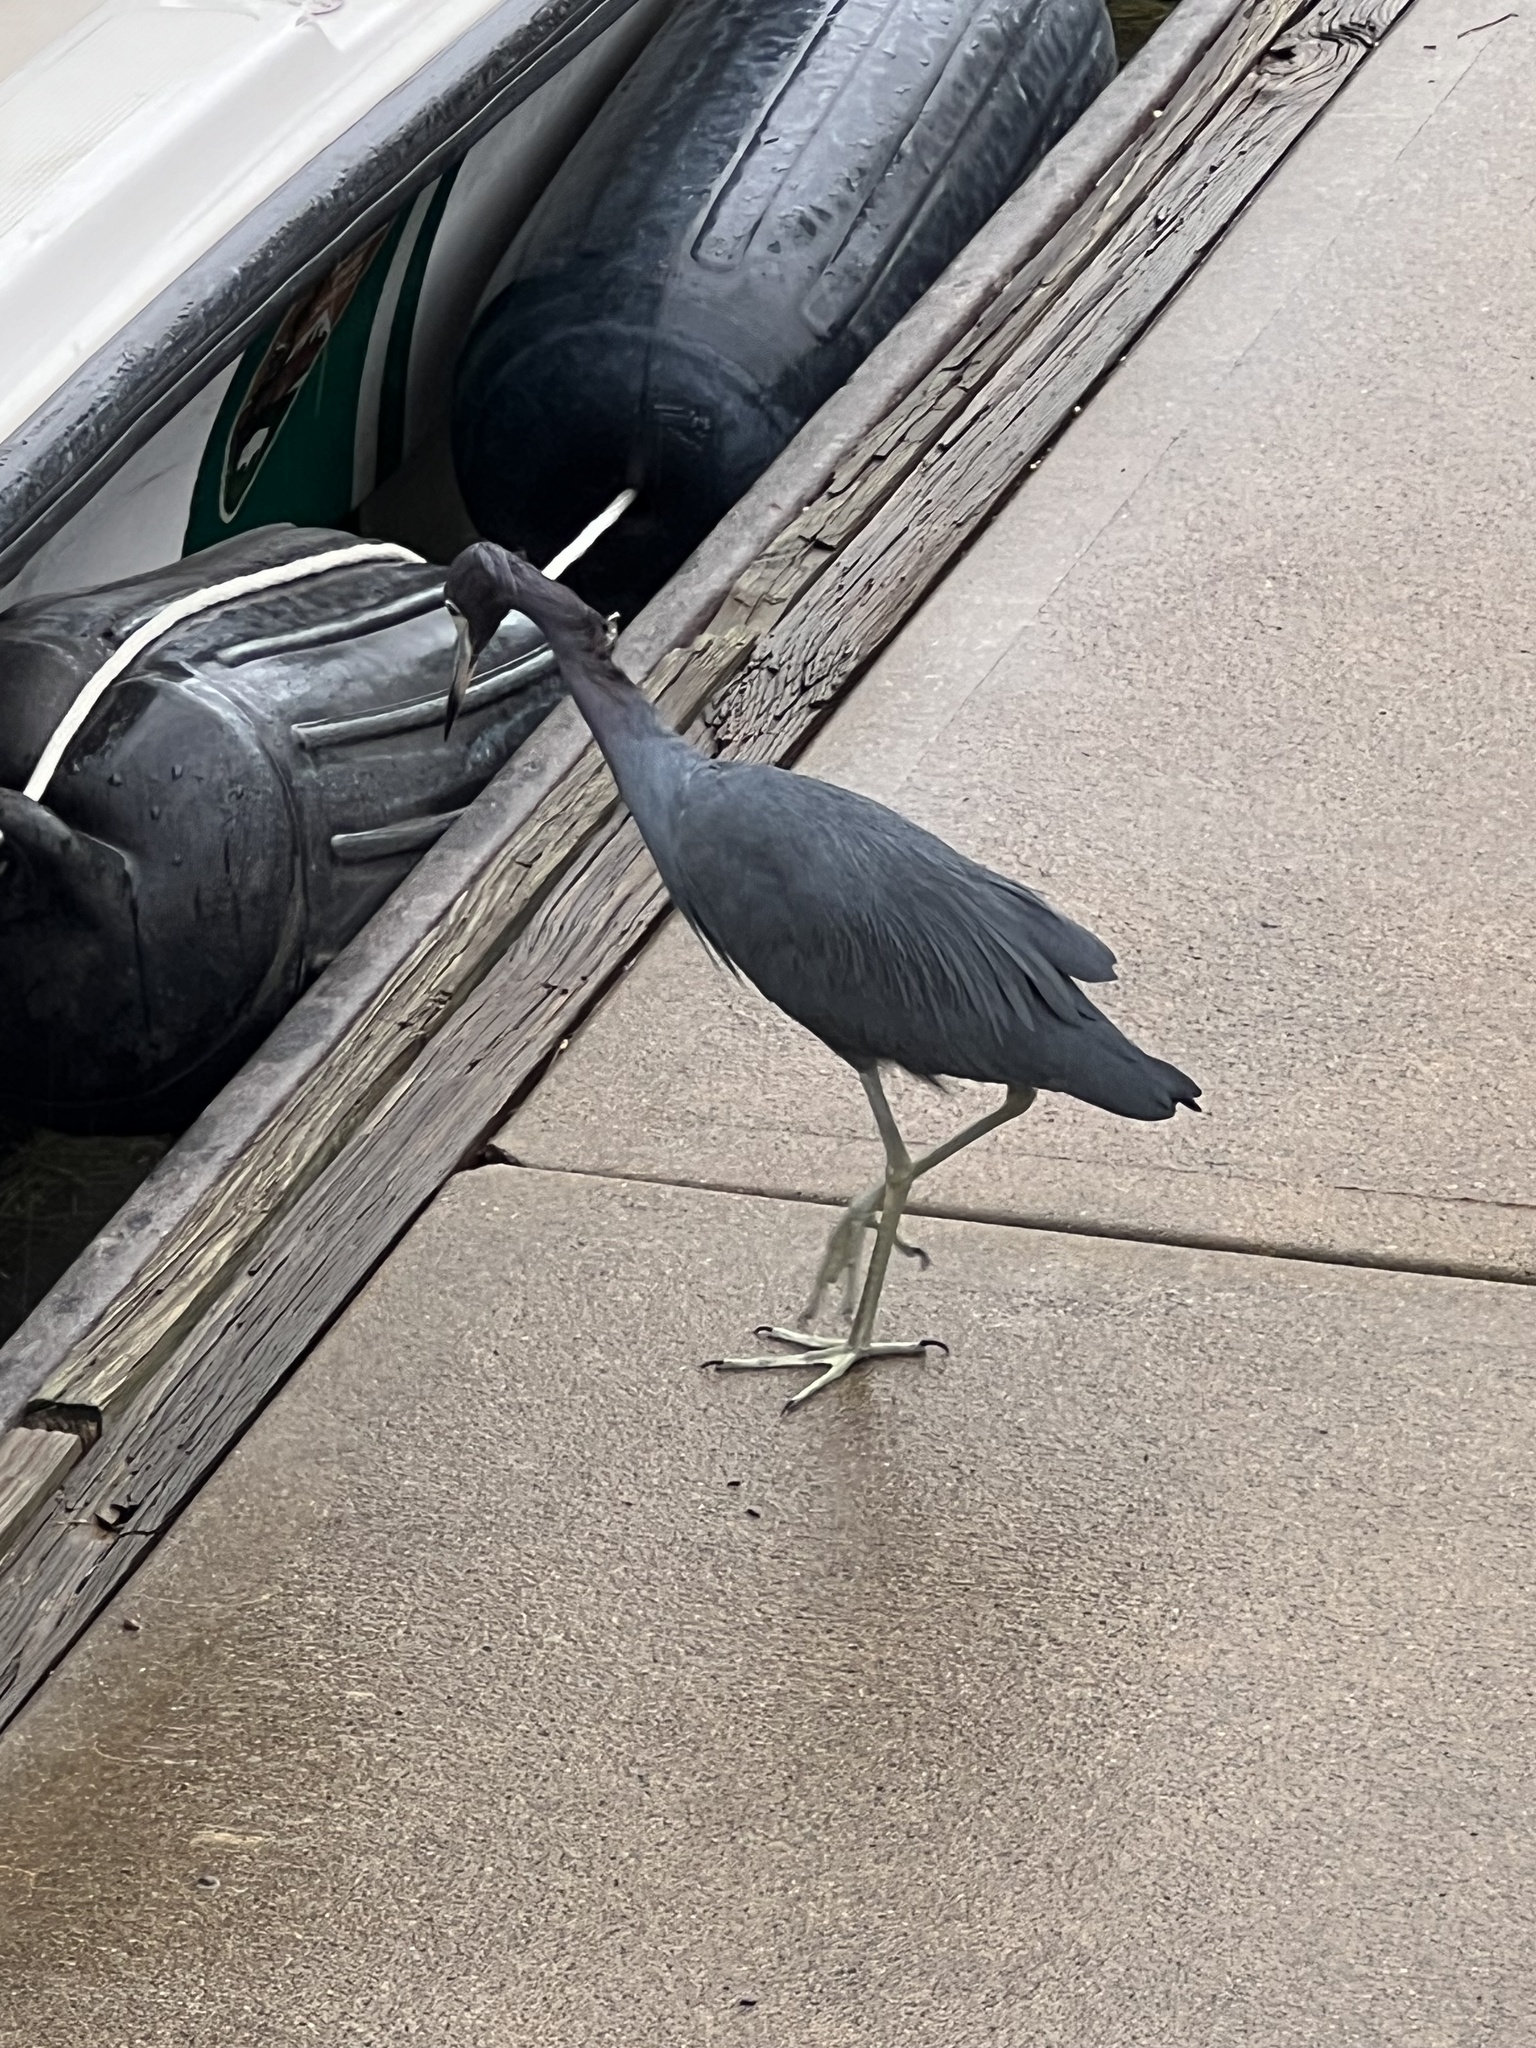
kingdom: Animalia
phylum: Chordata
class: Aves
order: Pelecaniformes
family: Ardeidae
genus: Egretta
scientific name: Egretta caerulea
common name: Little blue heron
